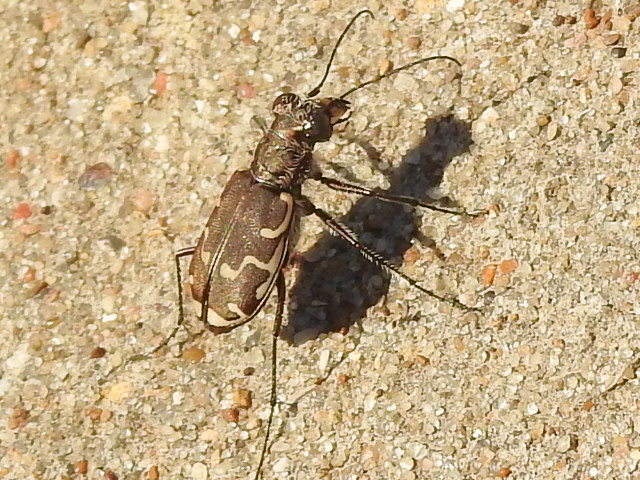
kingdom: Animalia
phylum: Arthropoda
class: Insecta
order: Coleoptera
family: Carabidae
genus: Cicindela
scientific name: Cicindela repanda
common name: Bronzed tiger beetle
